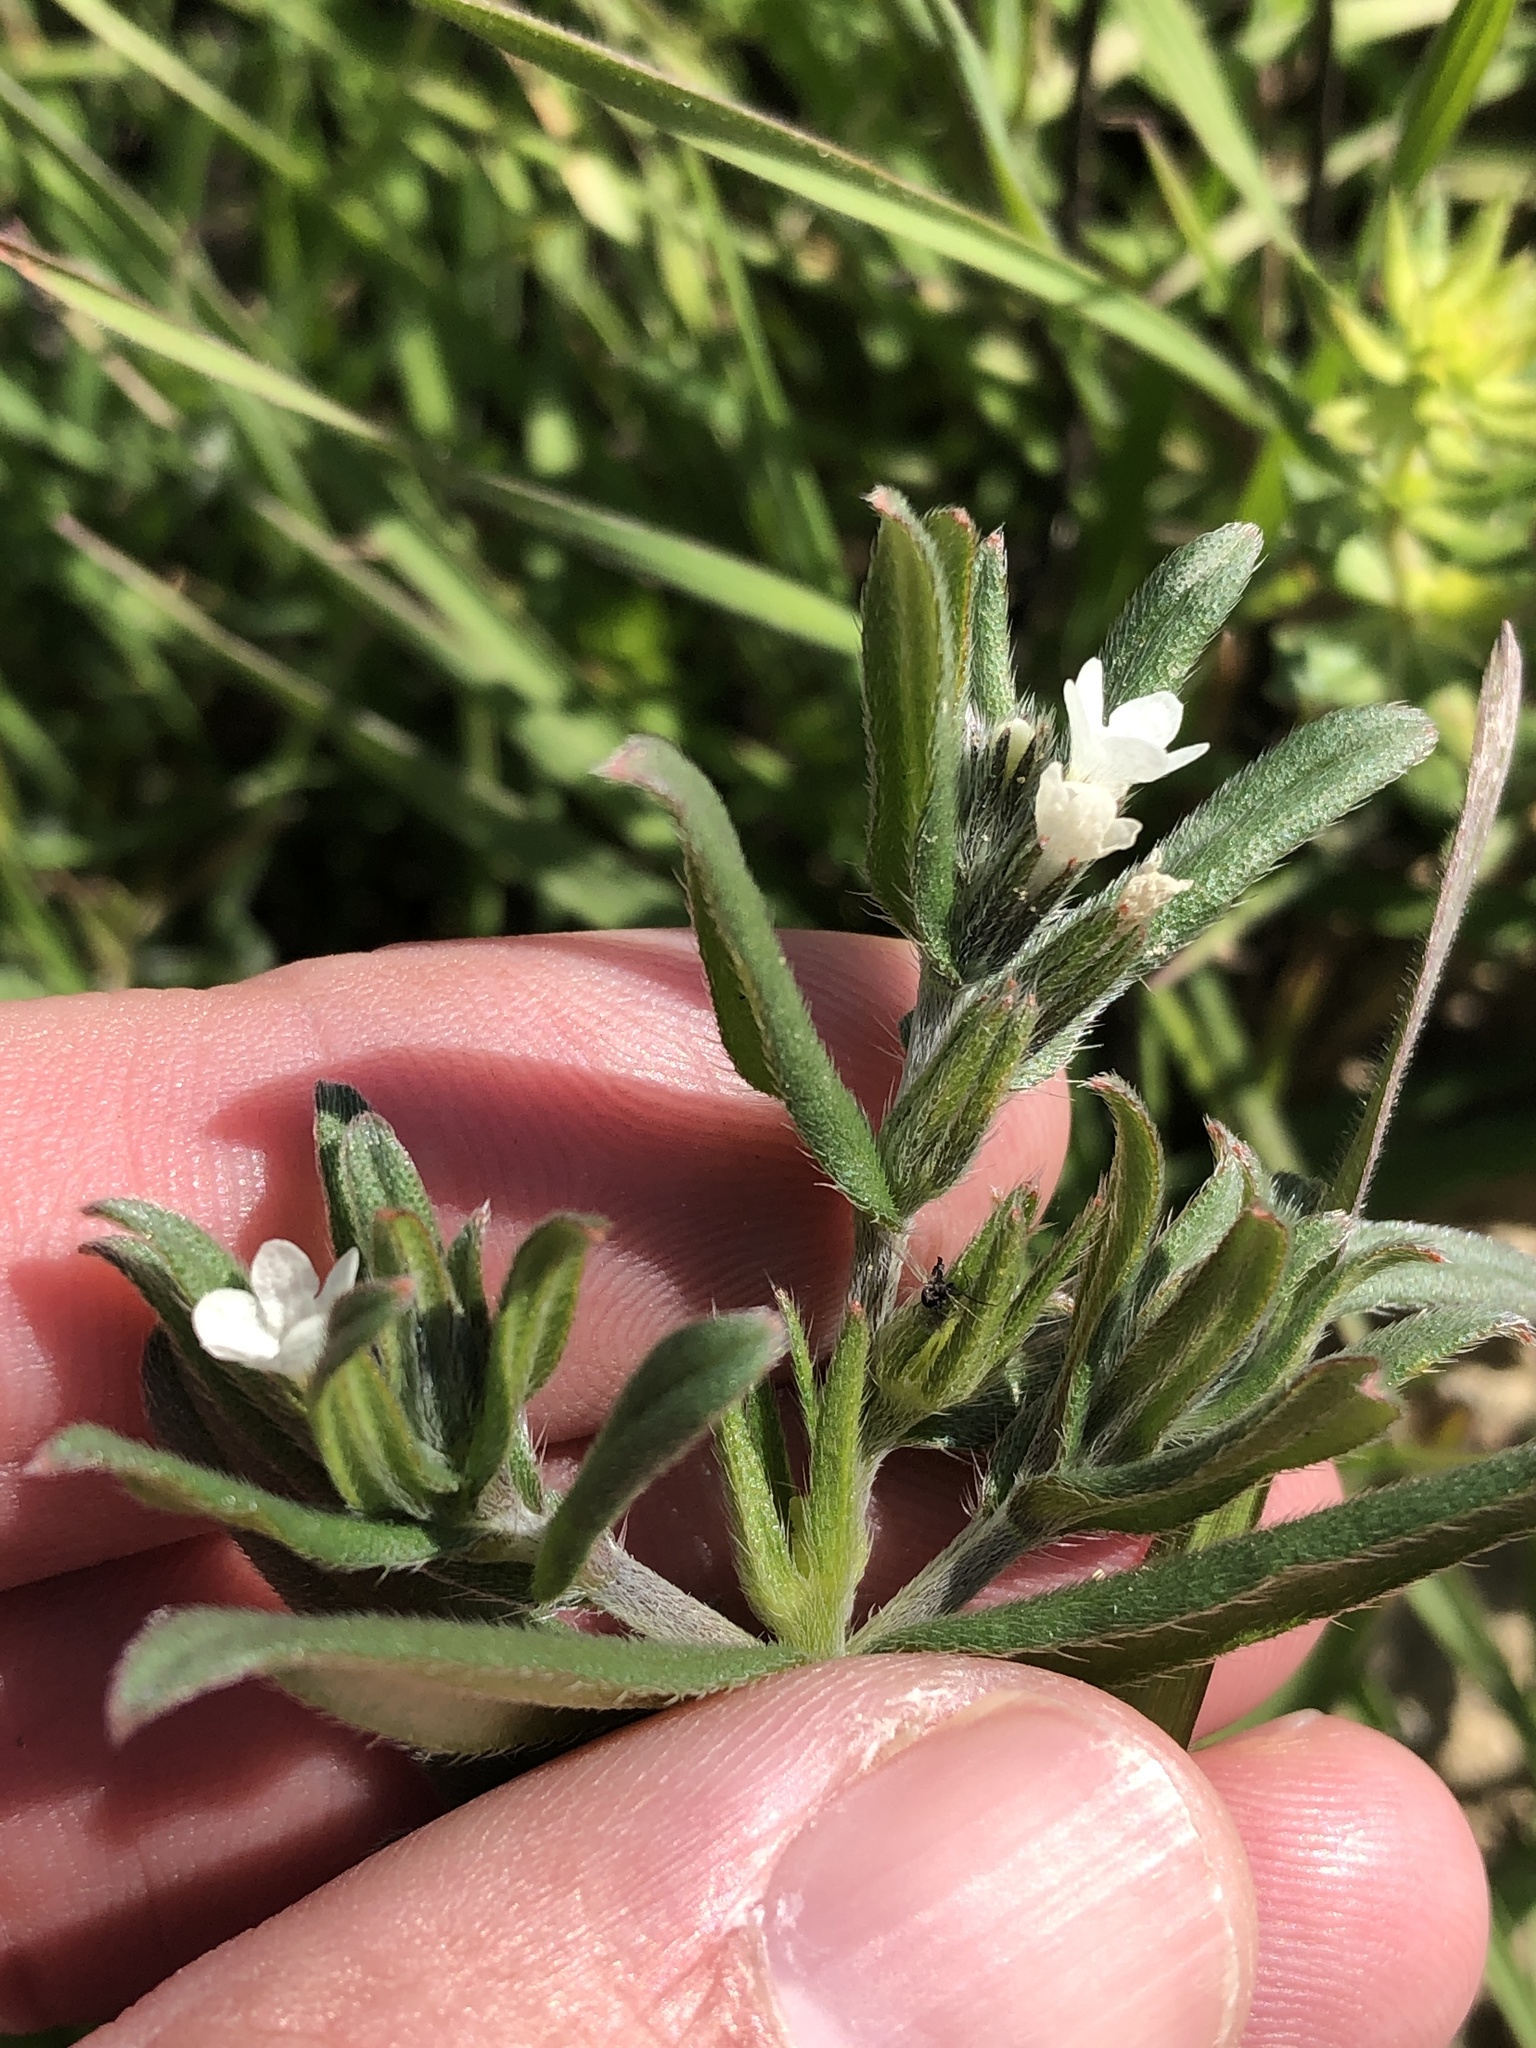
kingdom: Plantae
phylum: Tracheophyta
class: Magnoliopsida
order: Boraginales
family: Boraginaceae
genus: Buglossoides
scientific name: Buglossoides arvensis
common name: Corn gromwell
